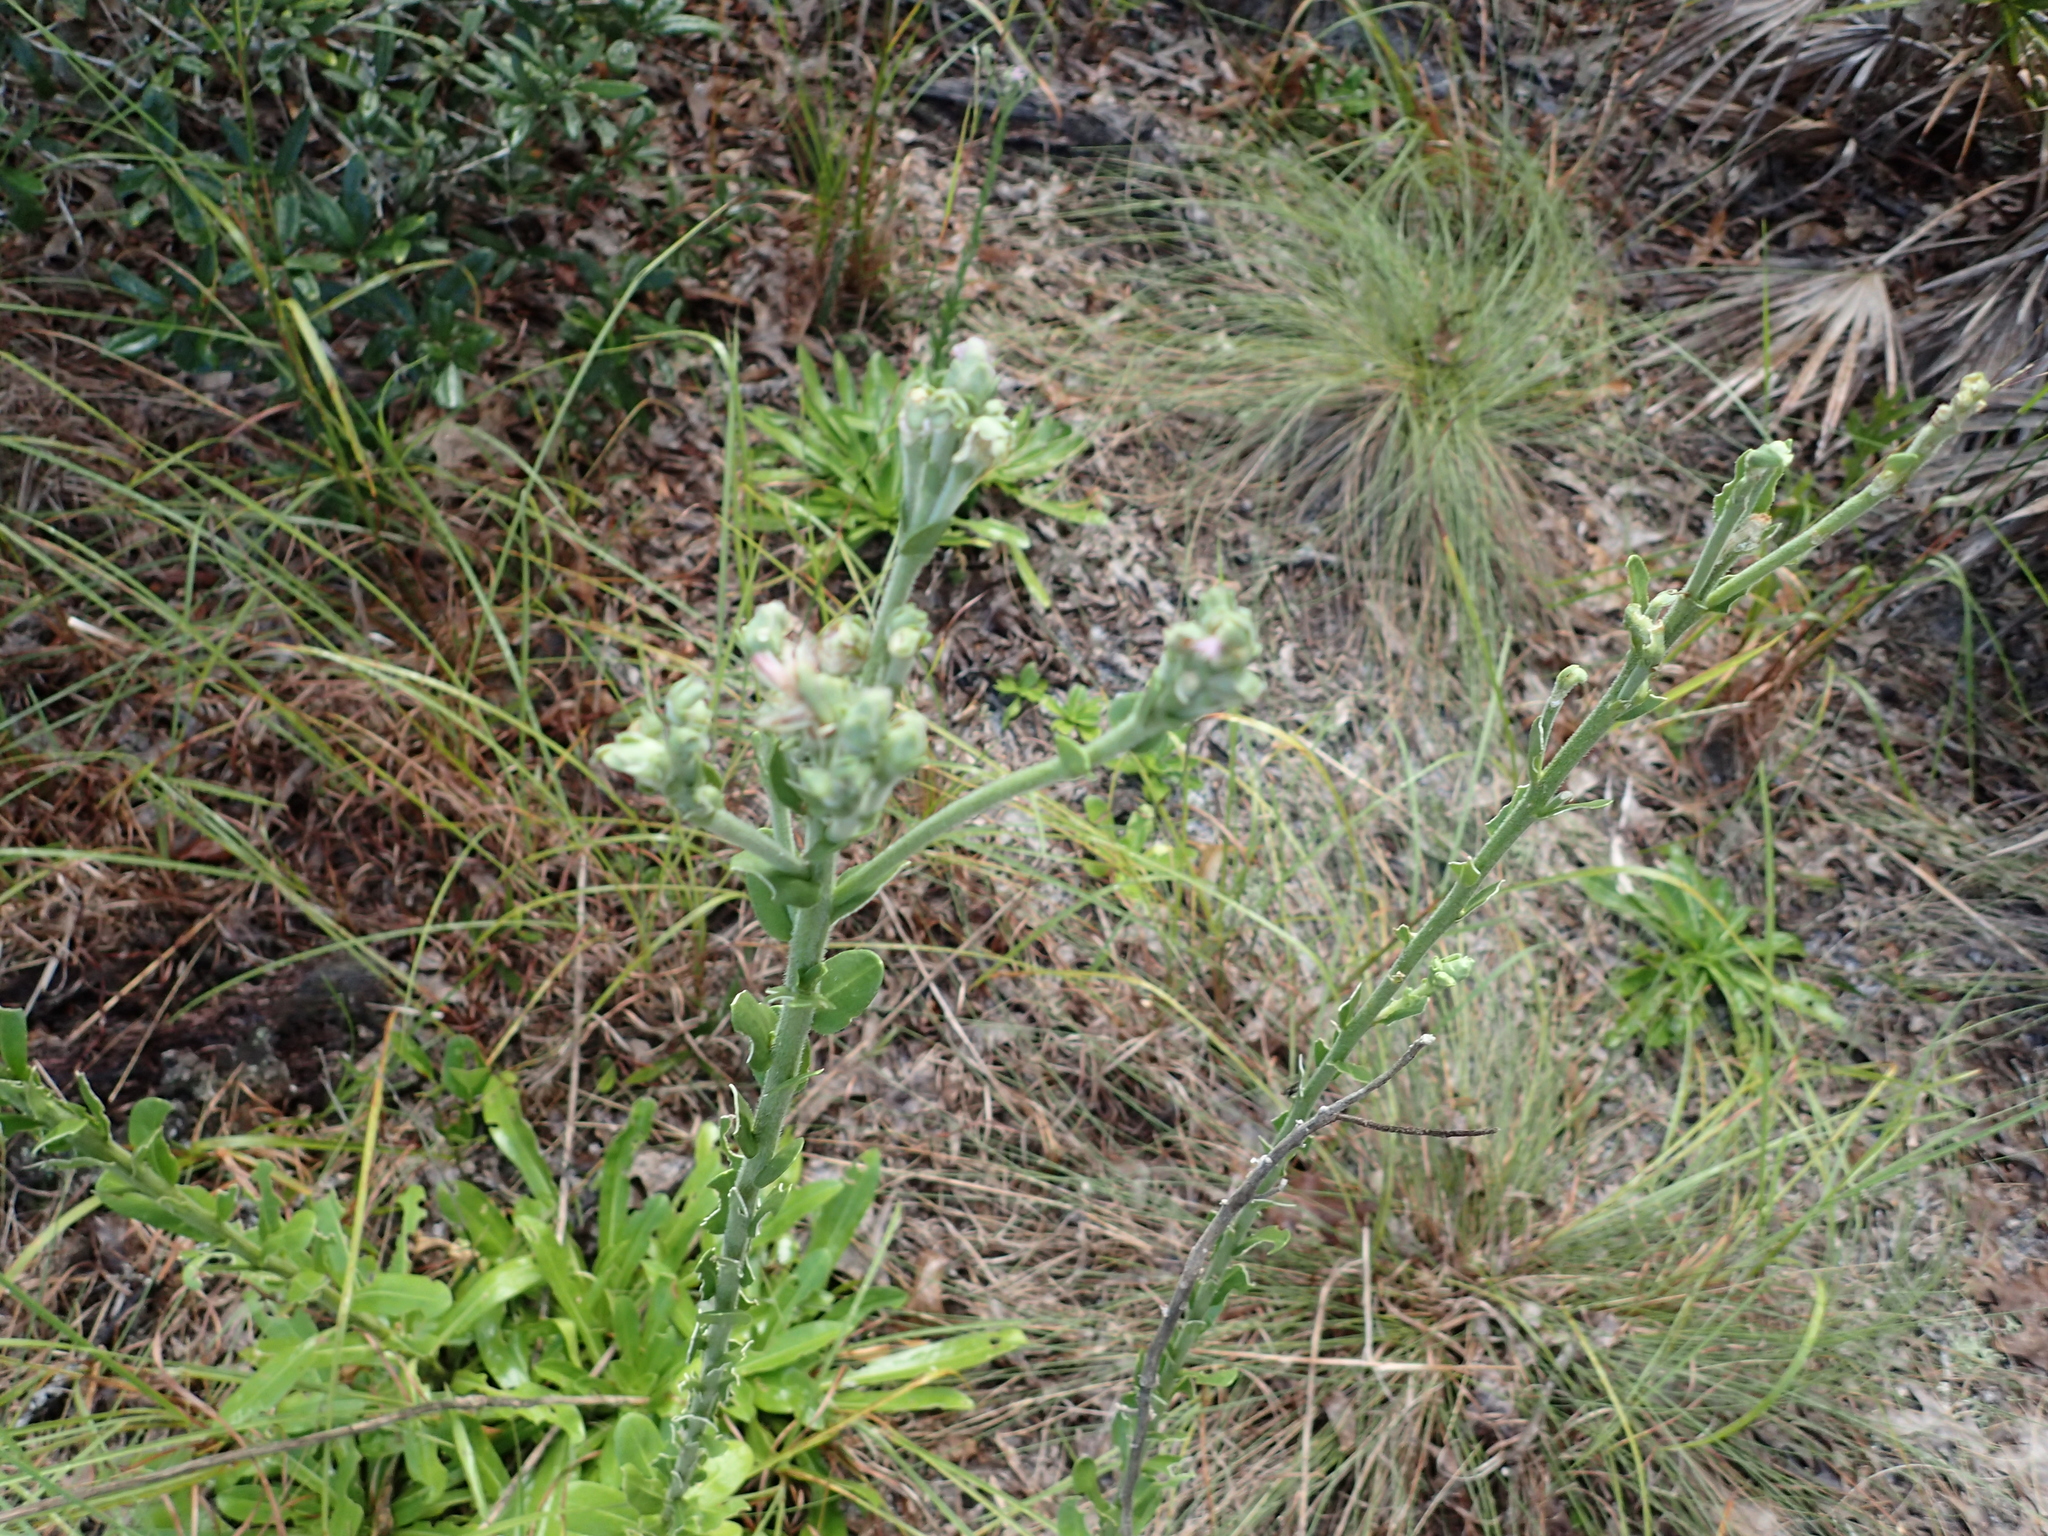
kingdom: Plantae
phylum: Tracheophyta
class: Magnoliopsida
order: Asterales
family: Asteraceae
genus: Carphephorus
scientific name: Carphephorus corymbosus
